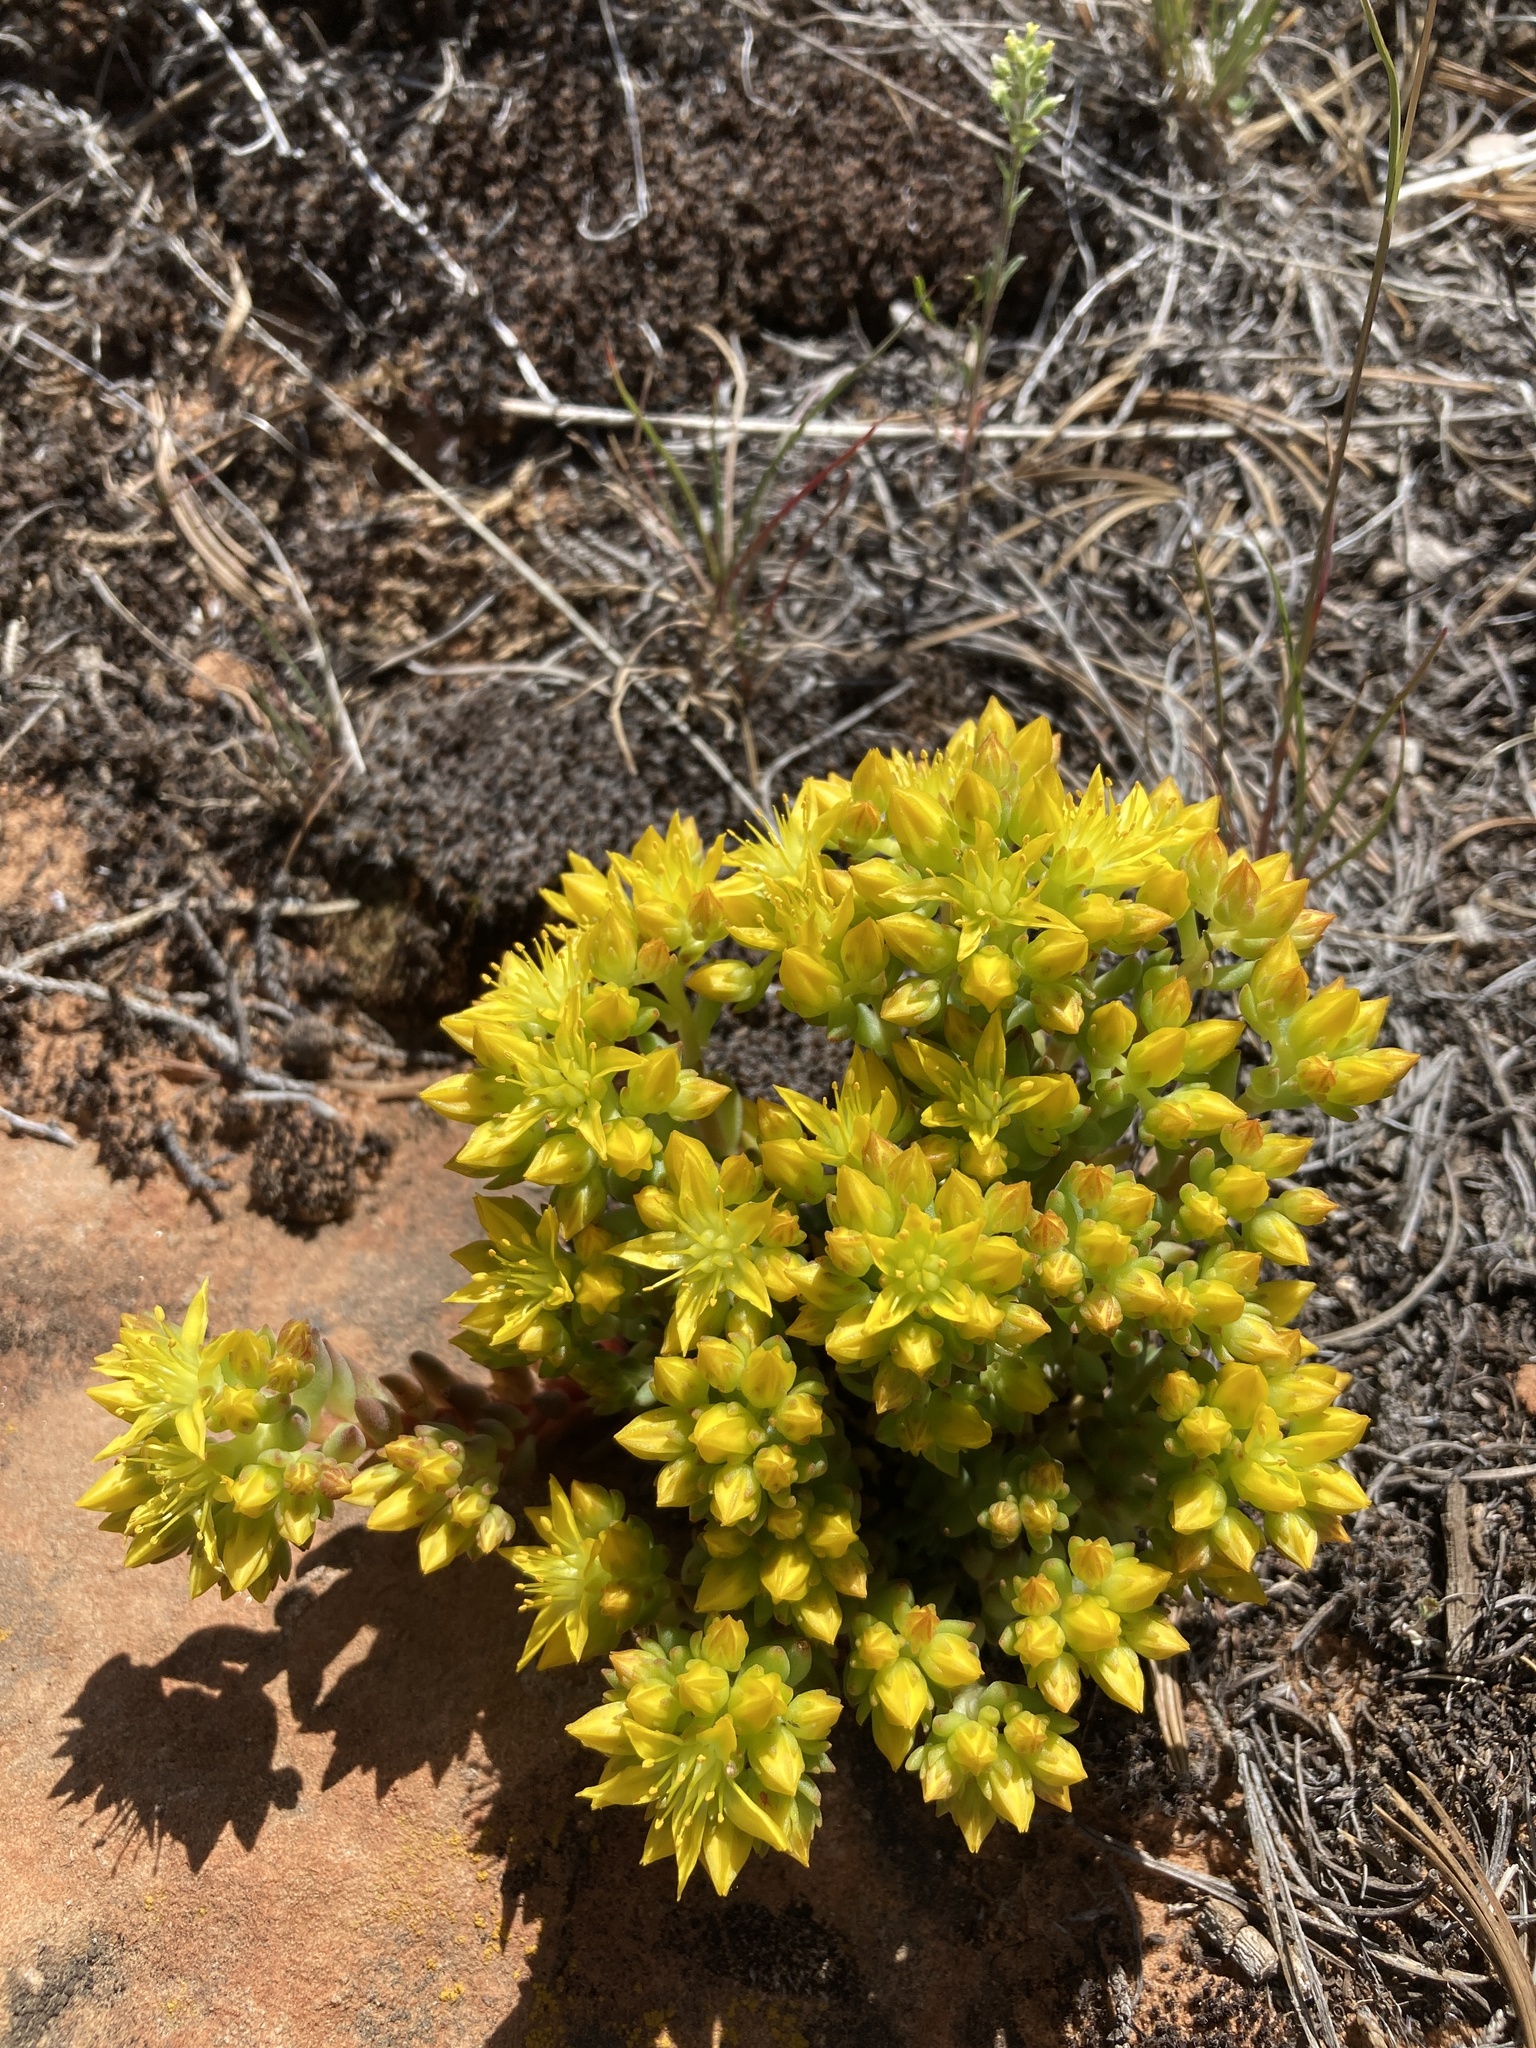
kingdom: Plantae
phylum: Tracheophyta
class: Magnoliopsida
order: Saxifragales
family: Crassulaceae
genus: Sedum
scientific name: Sedum lanceolatum
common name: Common stonecrop
